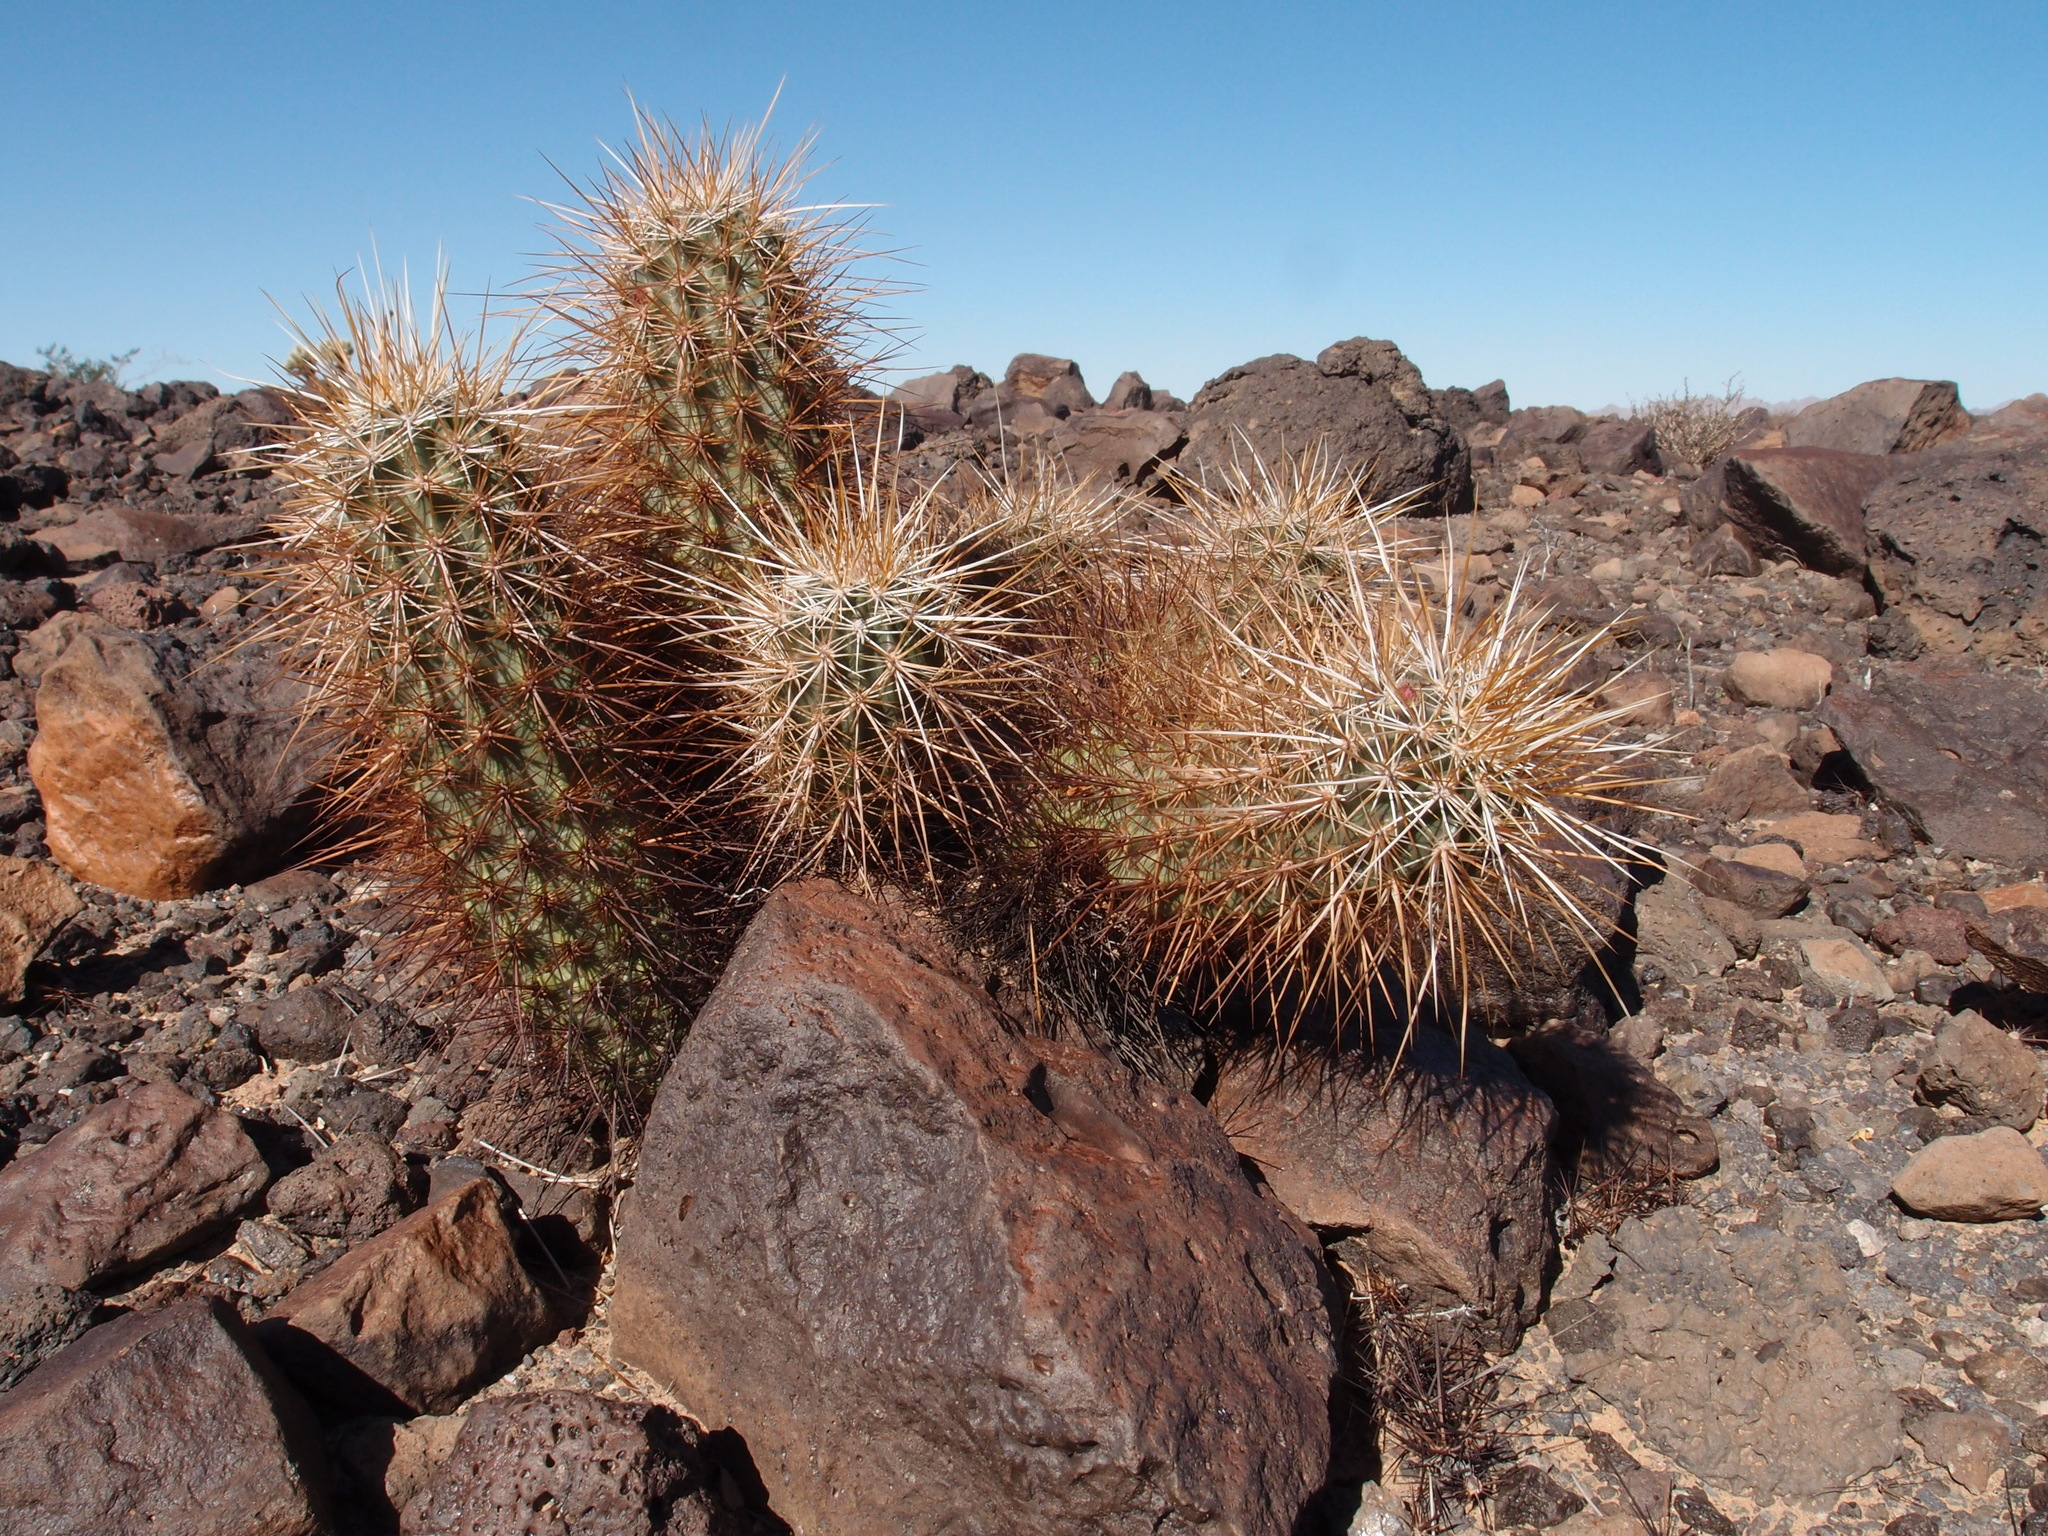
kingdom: Plantae
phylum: Tracheophyta
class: Magnoliopsida
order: Caryophyllales
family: Cactaceae
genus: Echinocereus
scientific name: Echinocereus engelmannii
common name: Engelmann's hedgehog cactus
